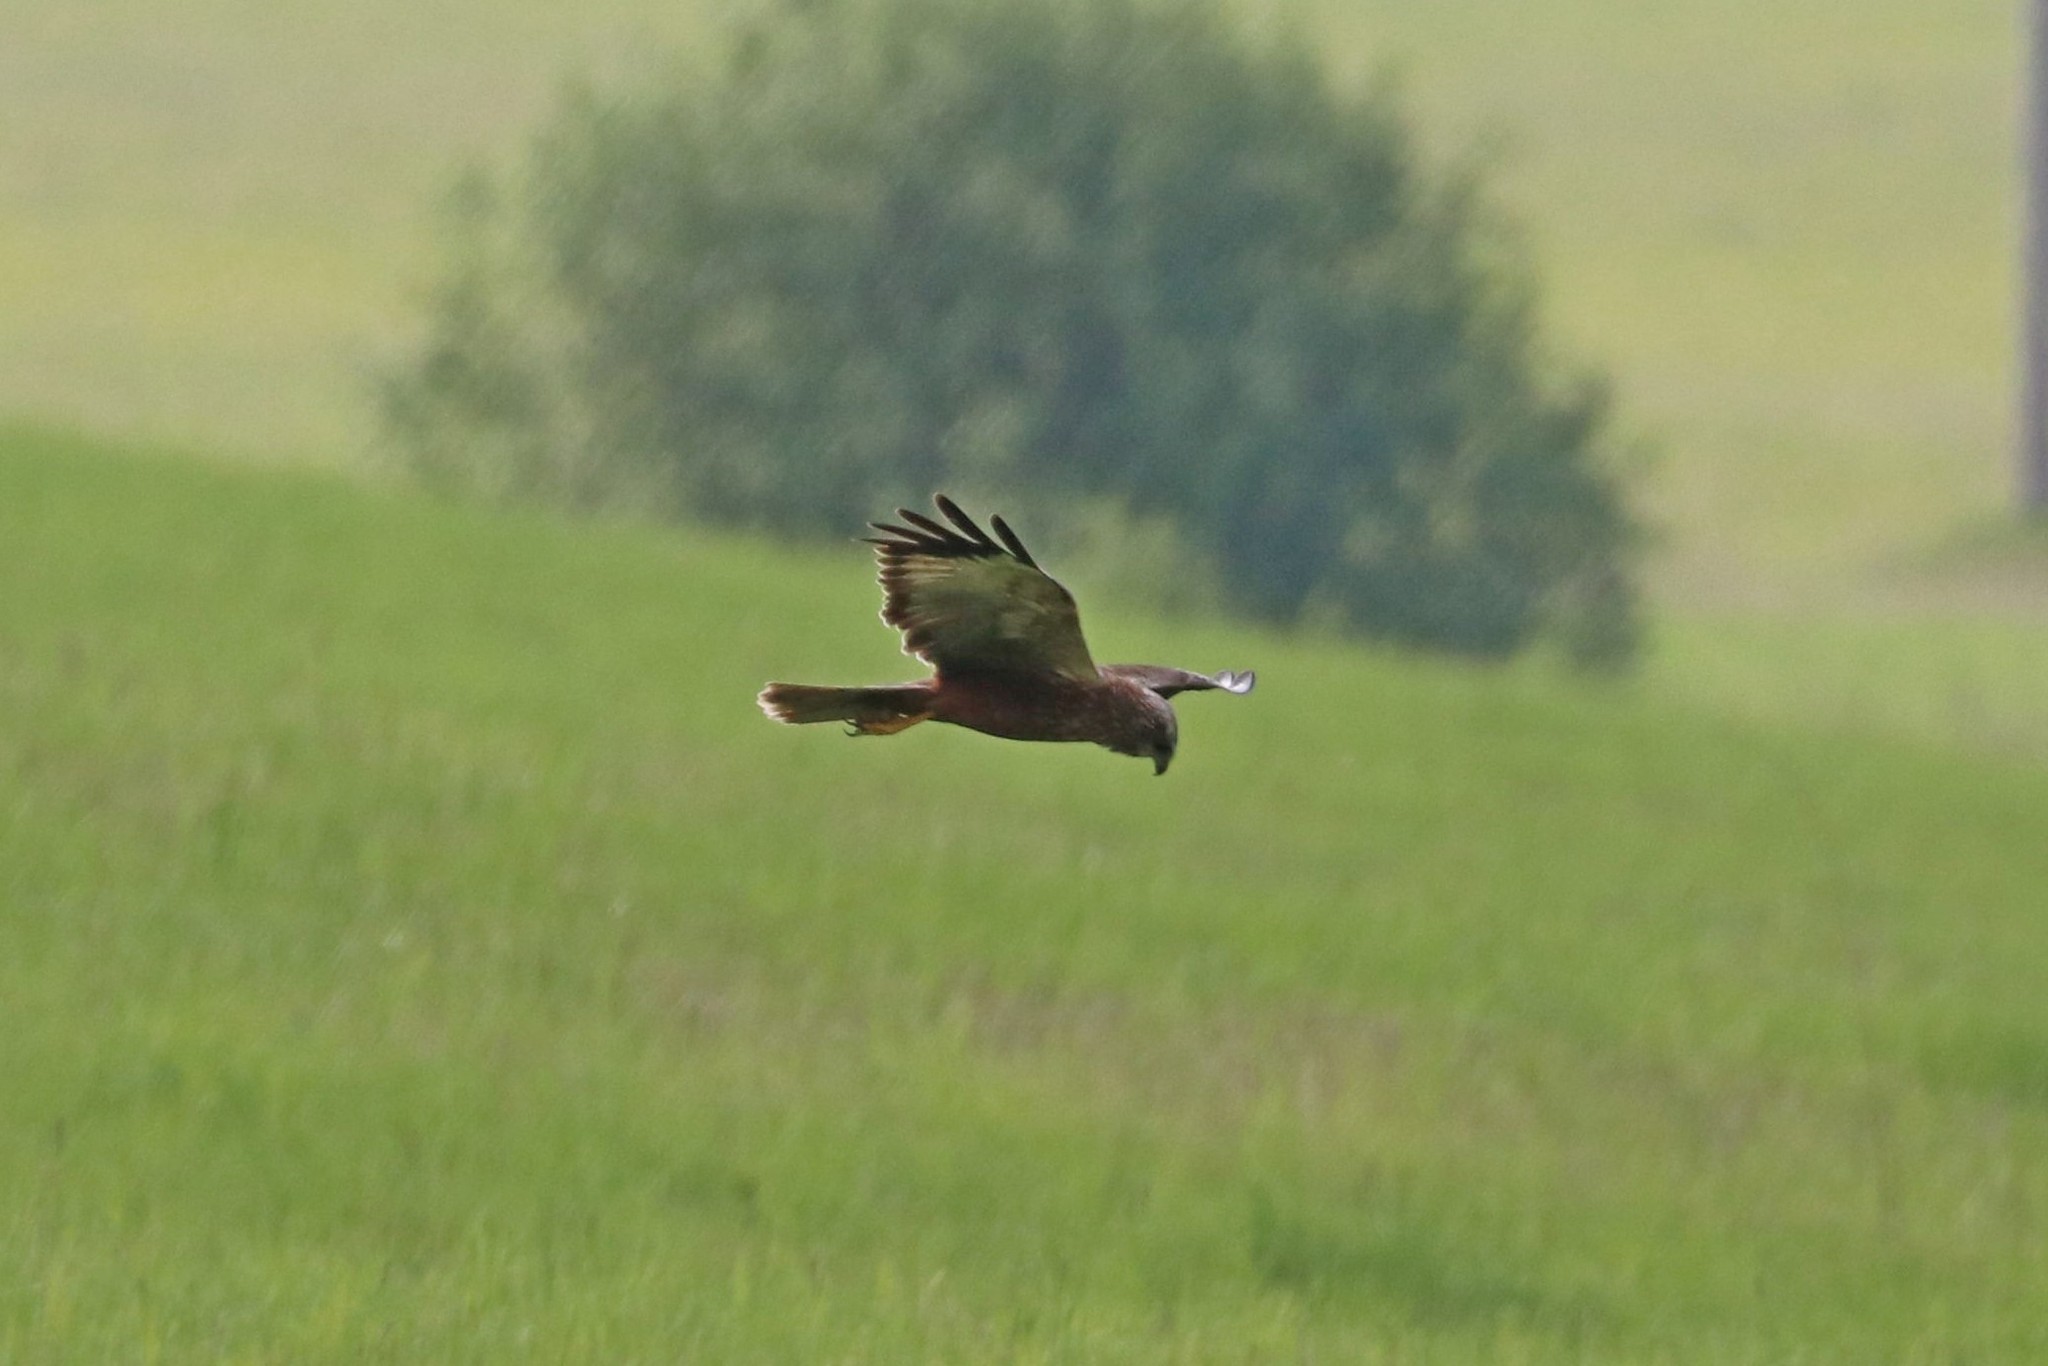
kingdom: Animalia
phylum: Chordata
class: Aves
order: Accipitriformes
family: Accipitridae
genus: Circus
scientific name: Circus aeruginosus
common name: Western marsh harrier
